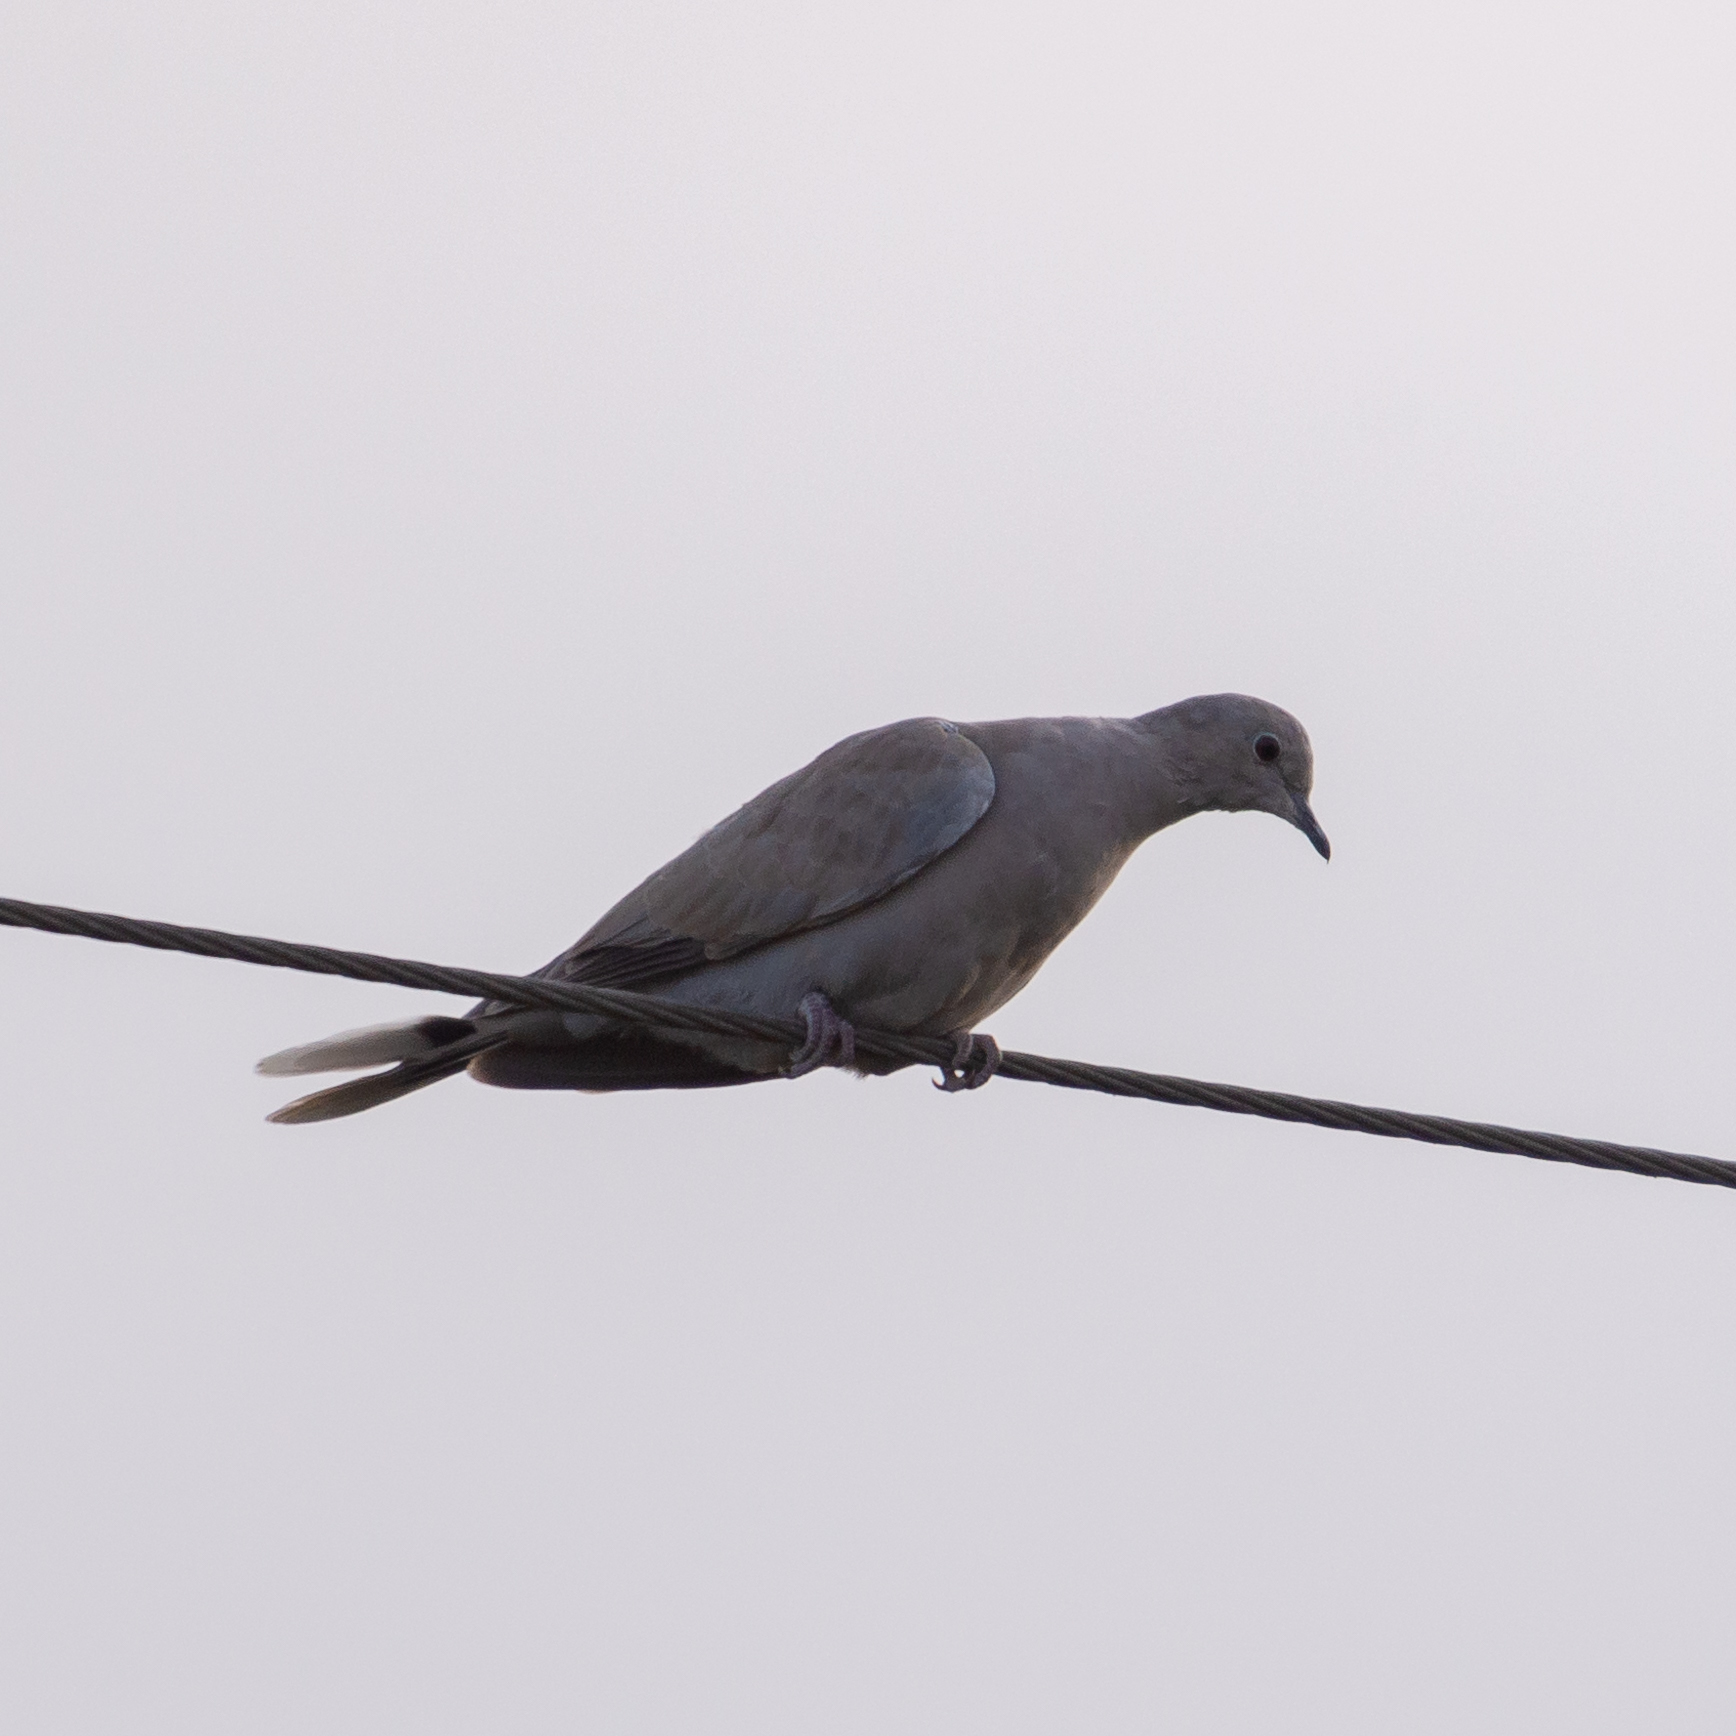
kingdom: Animalia
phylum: Chordata
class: Aves
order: Columbiformes
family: Columbidae
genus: Streptopelia
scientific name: Streptopelia decaocto
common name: Eurasian collared dove
